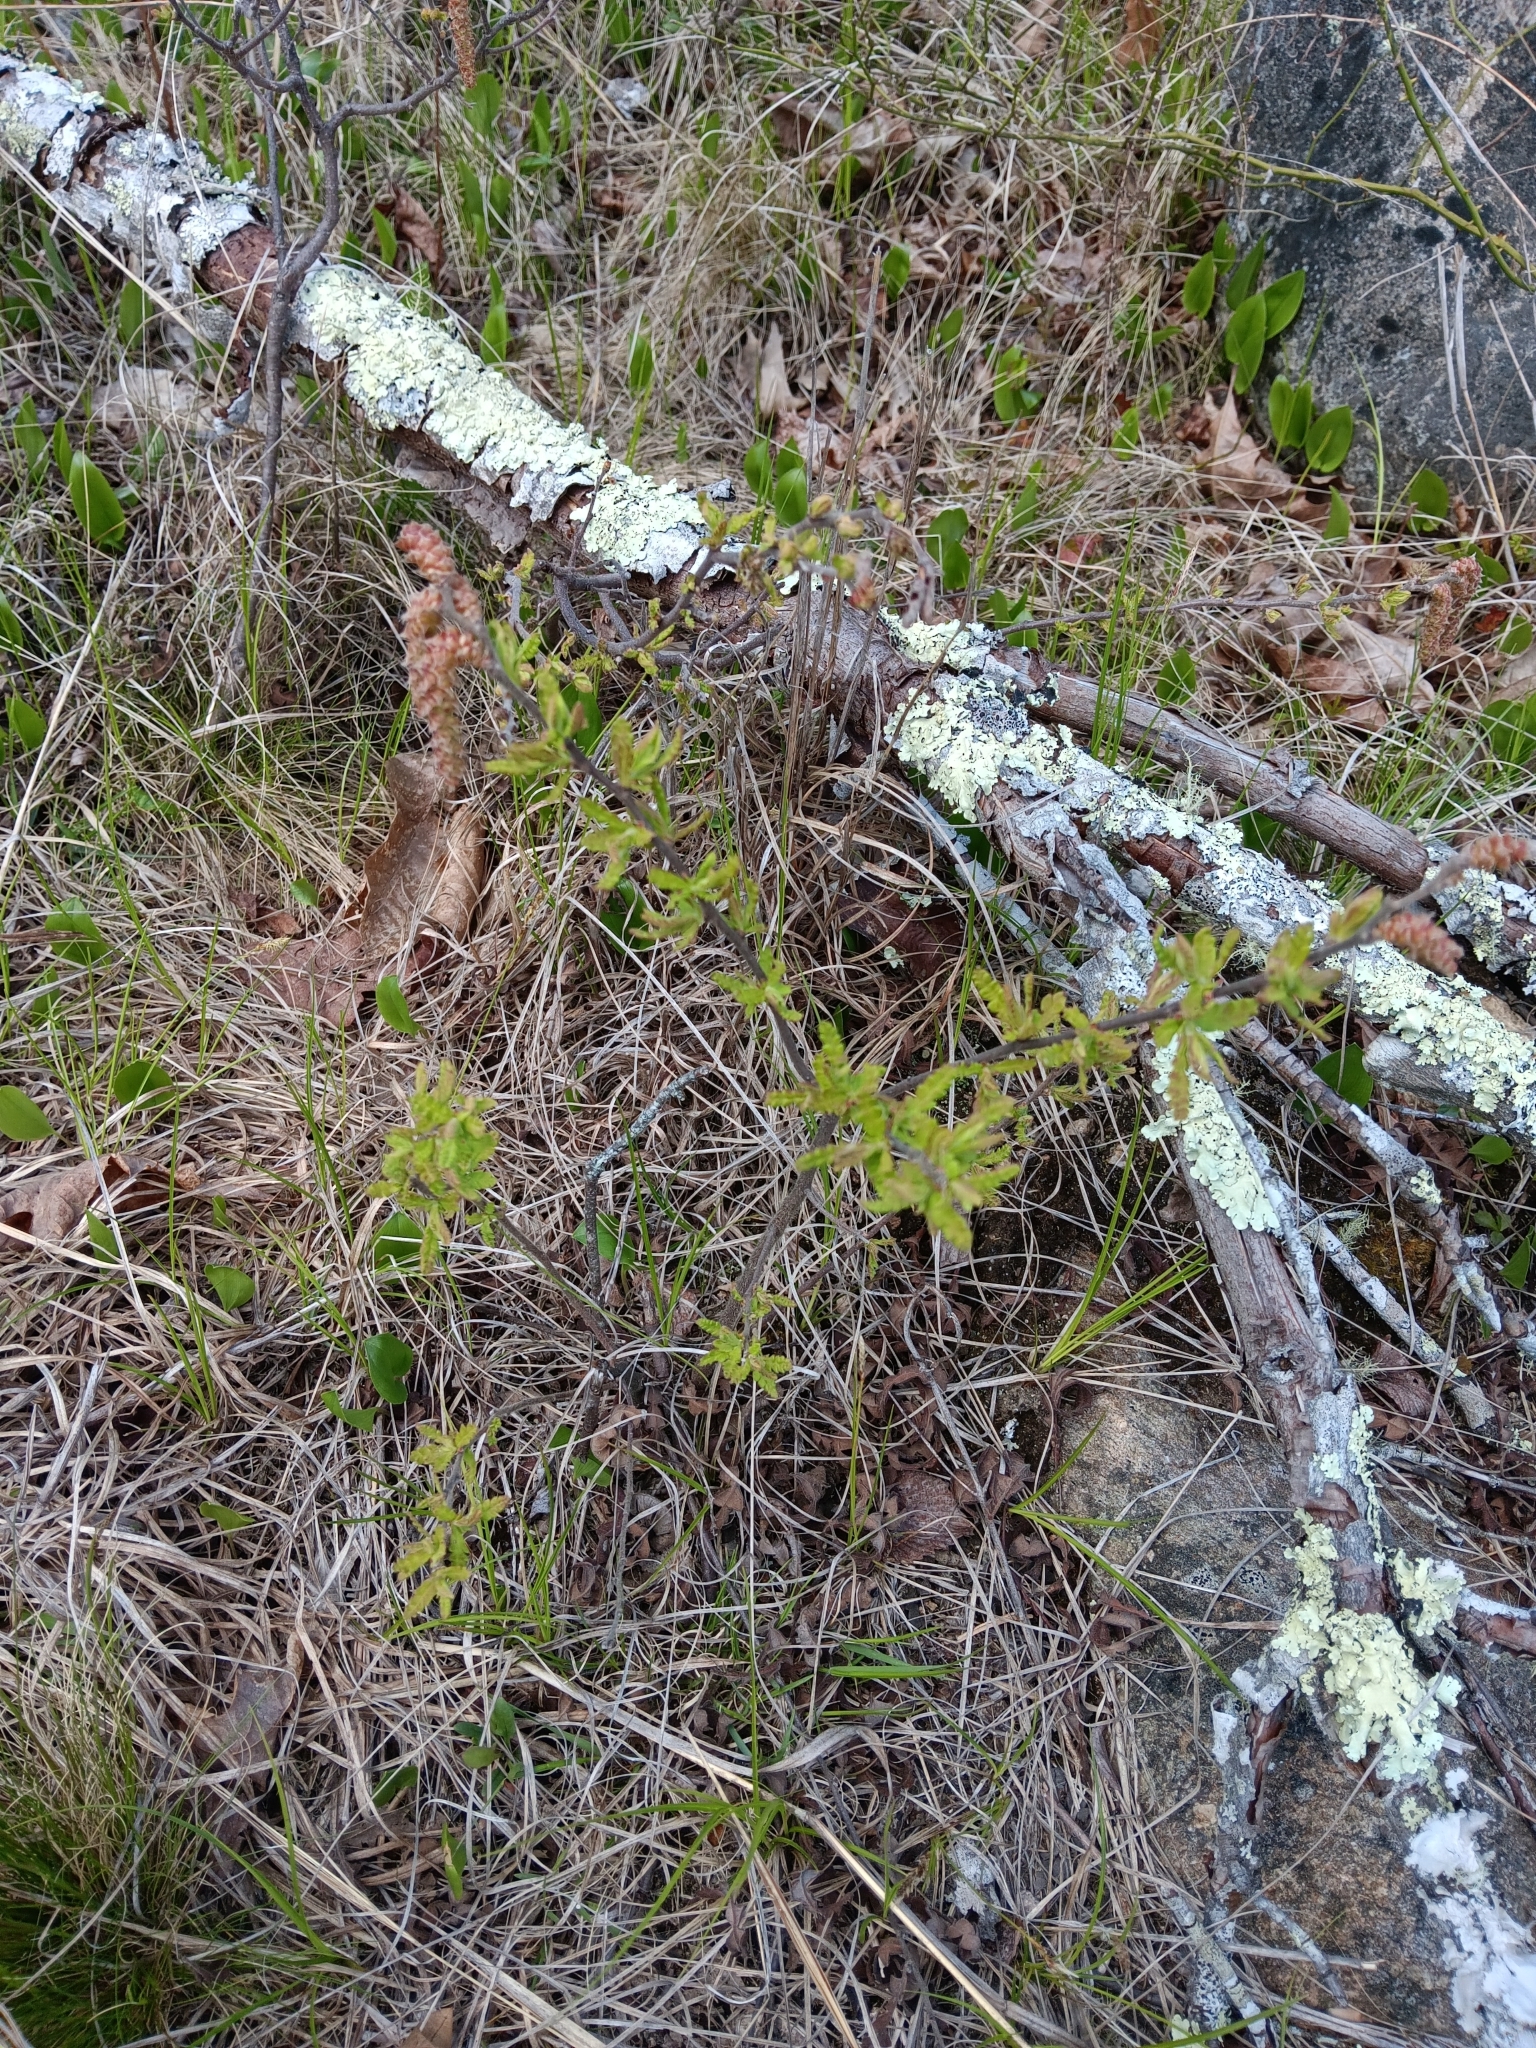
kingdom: Plantae
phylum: Tracheophyta
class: Magnoliopsida
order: Fagales
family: Myricaceae
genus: Comptonia
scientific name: Comptonia peregrina
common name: Sweet-fern
